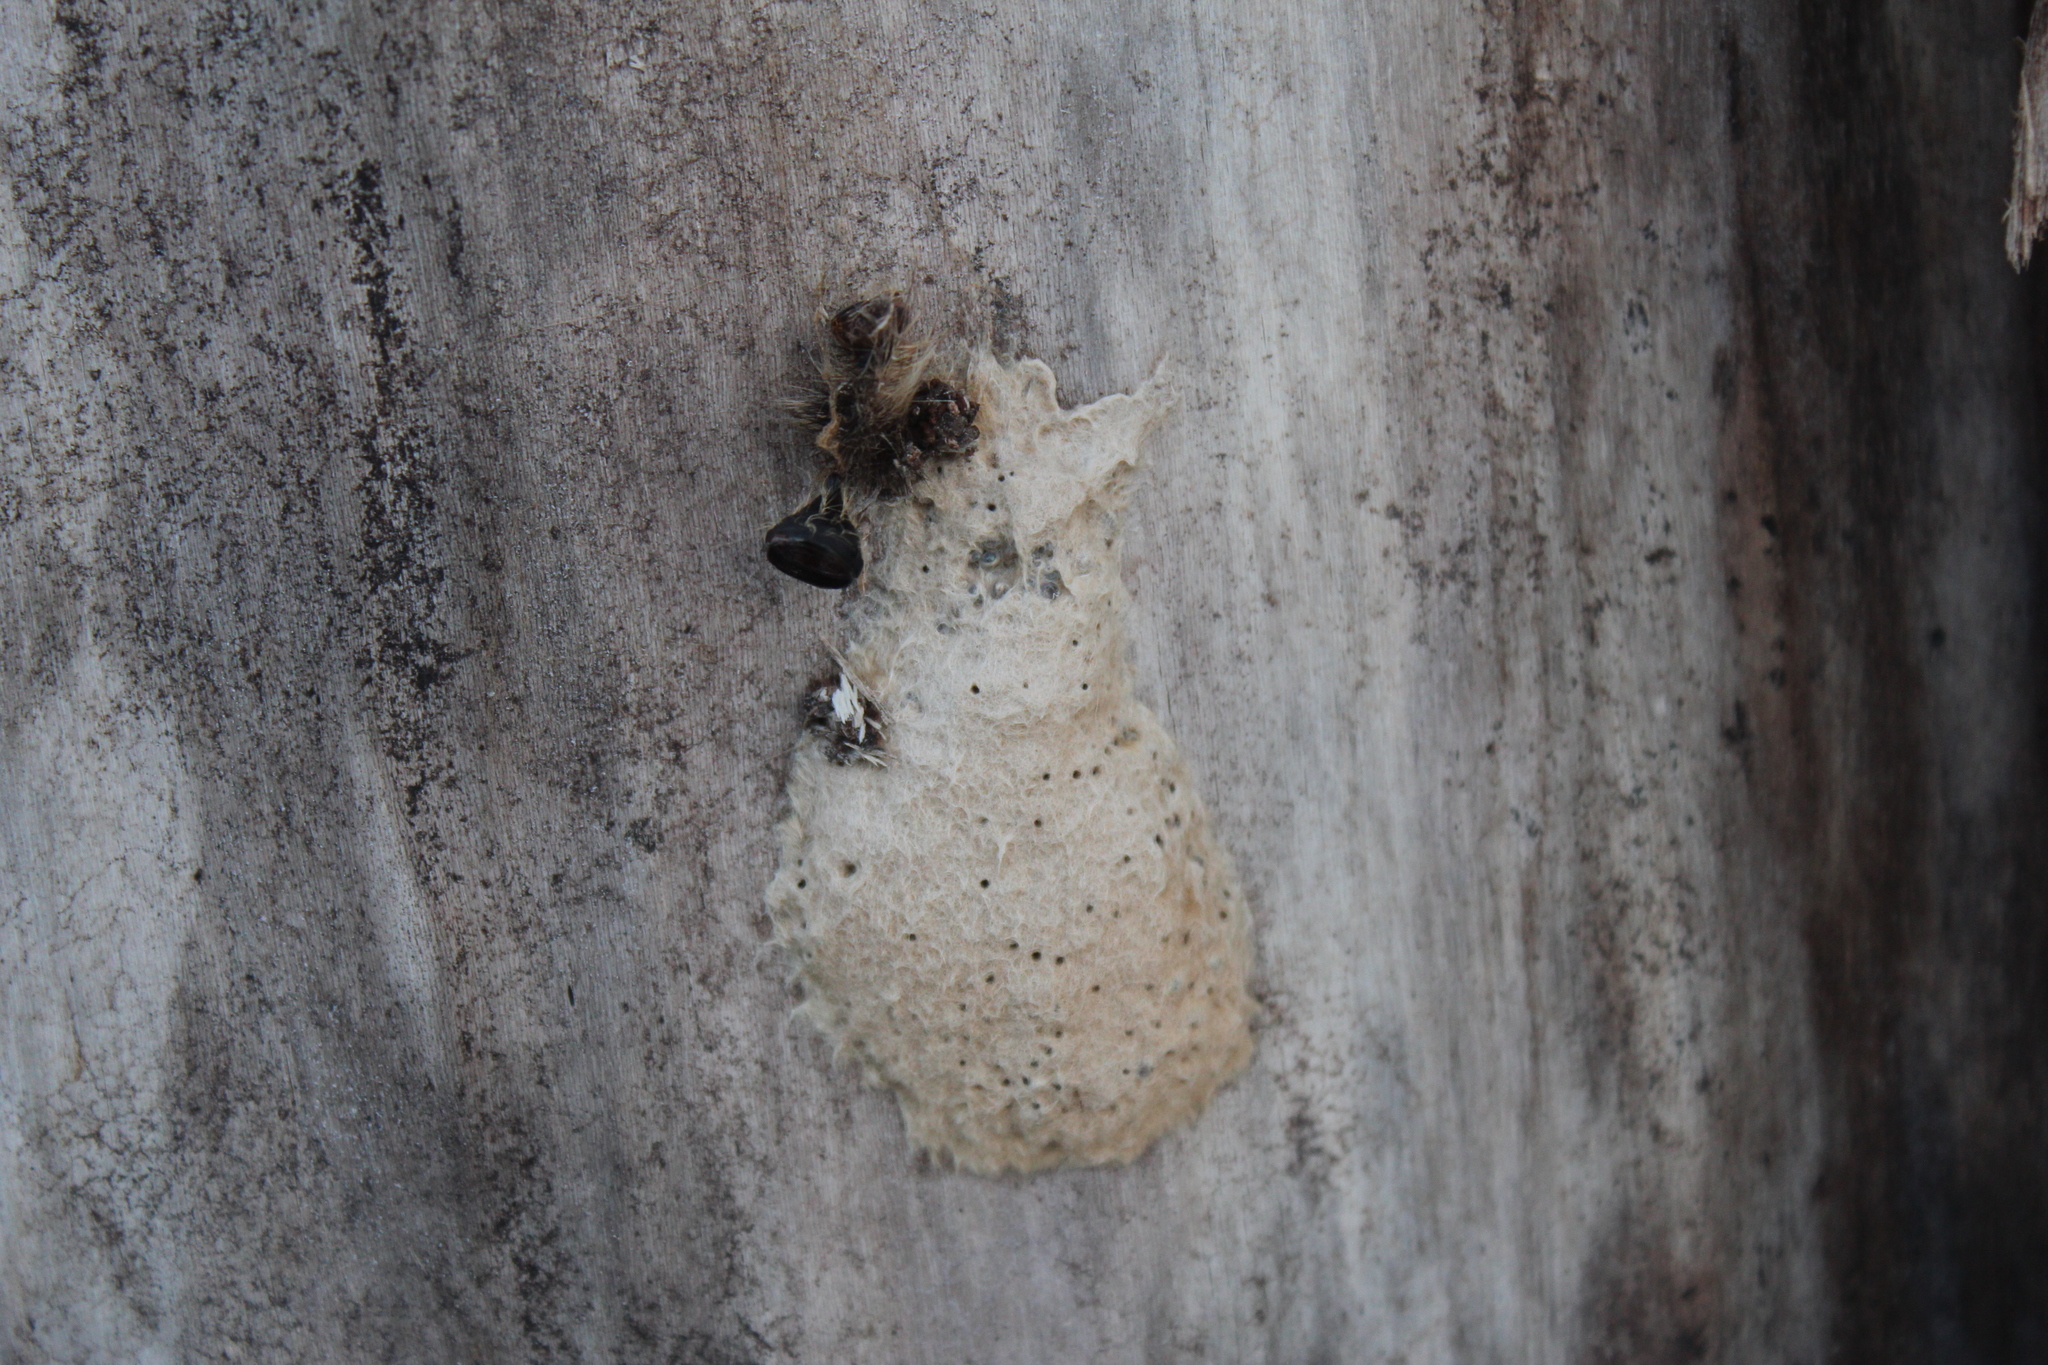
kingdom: Animalia
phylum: Arthropoda
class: Insecta
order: Lepidoptera
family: Erebidae
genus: Lymantria
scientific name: Lymantria dispar
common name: Gypsy moth
